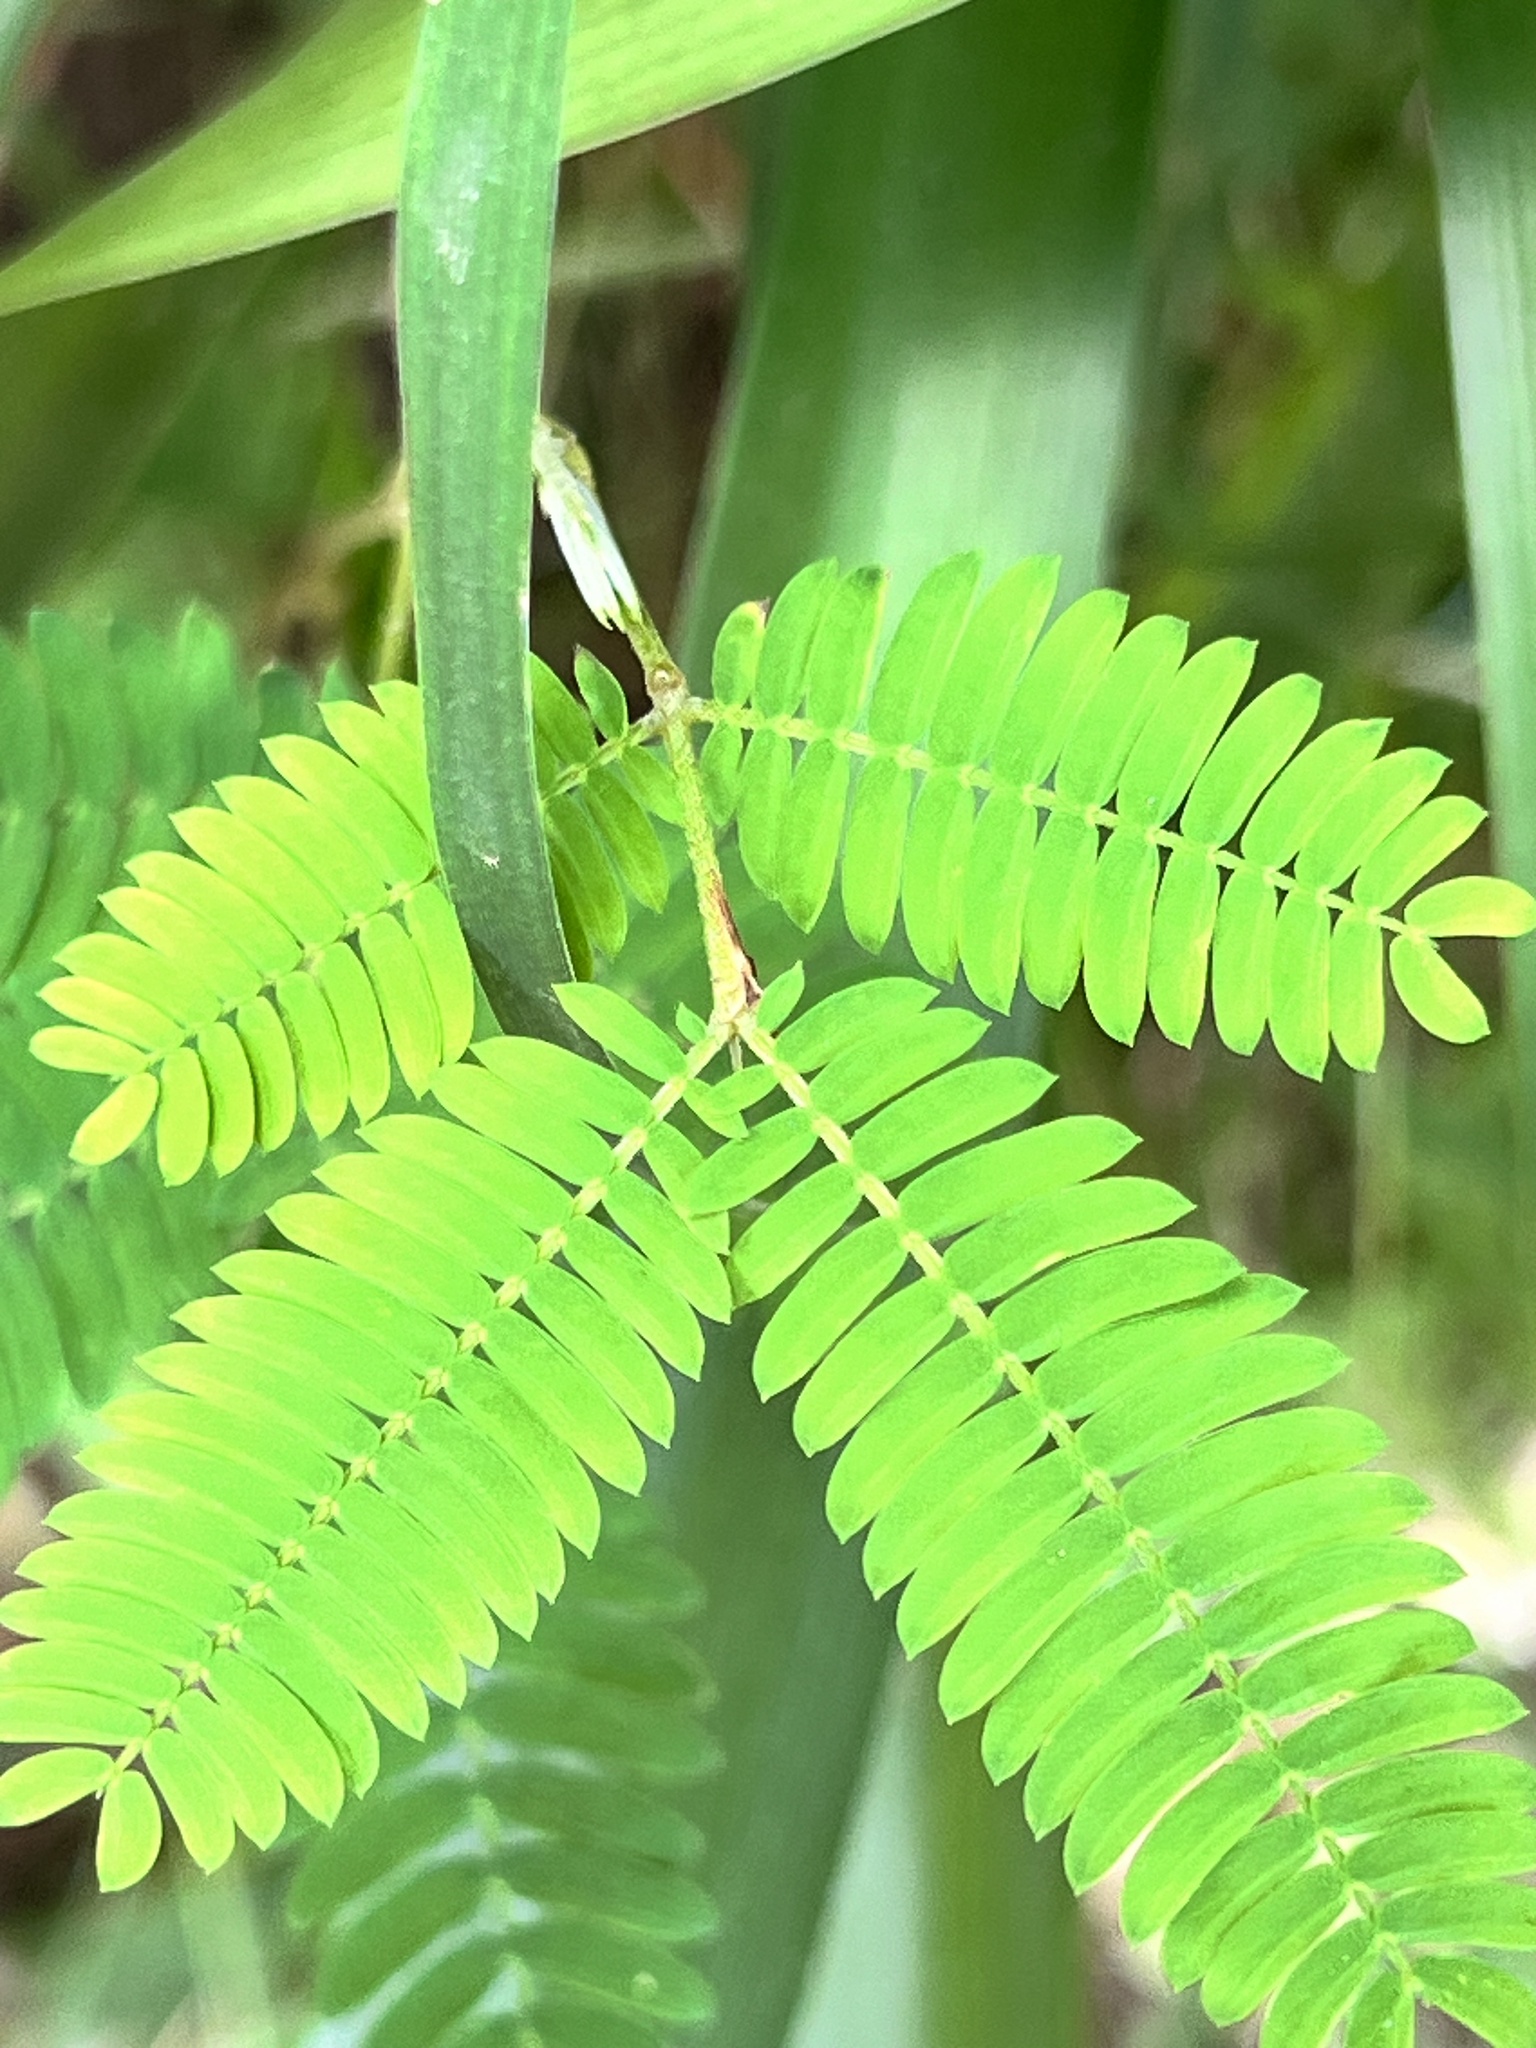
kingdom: Plantae
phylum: Tracheophyta
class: Magnoliopsida
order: Fabales
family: Fabaceae
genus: Albizia
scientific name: Albizia julibrissin
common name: Silktree
